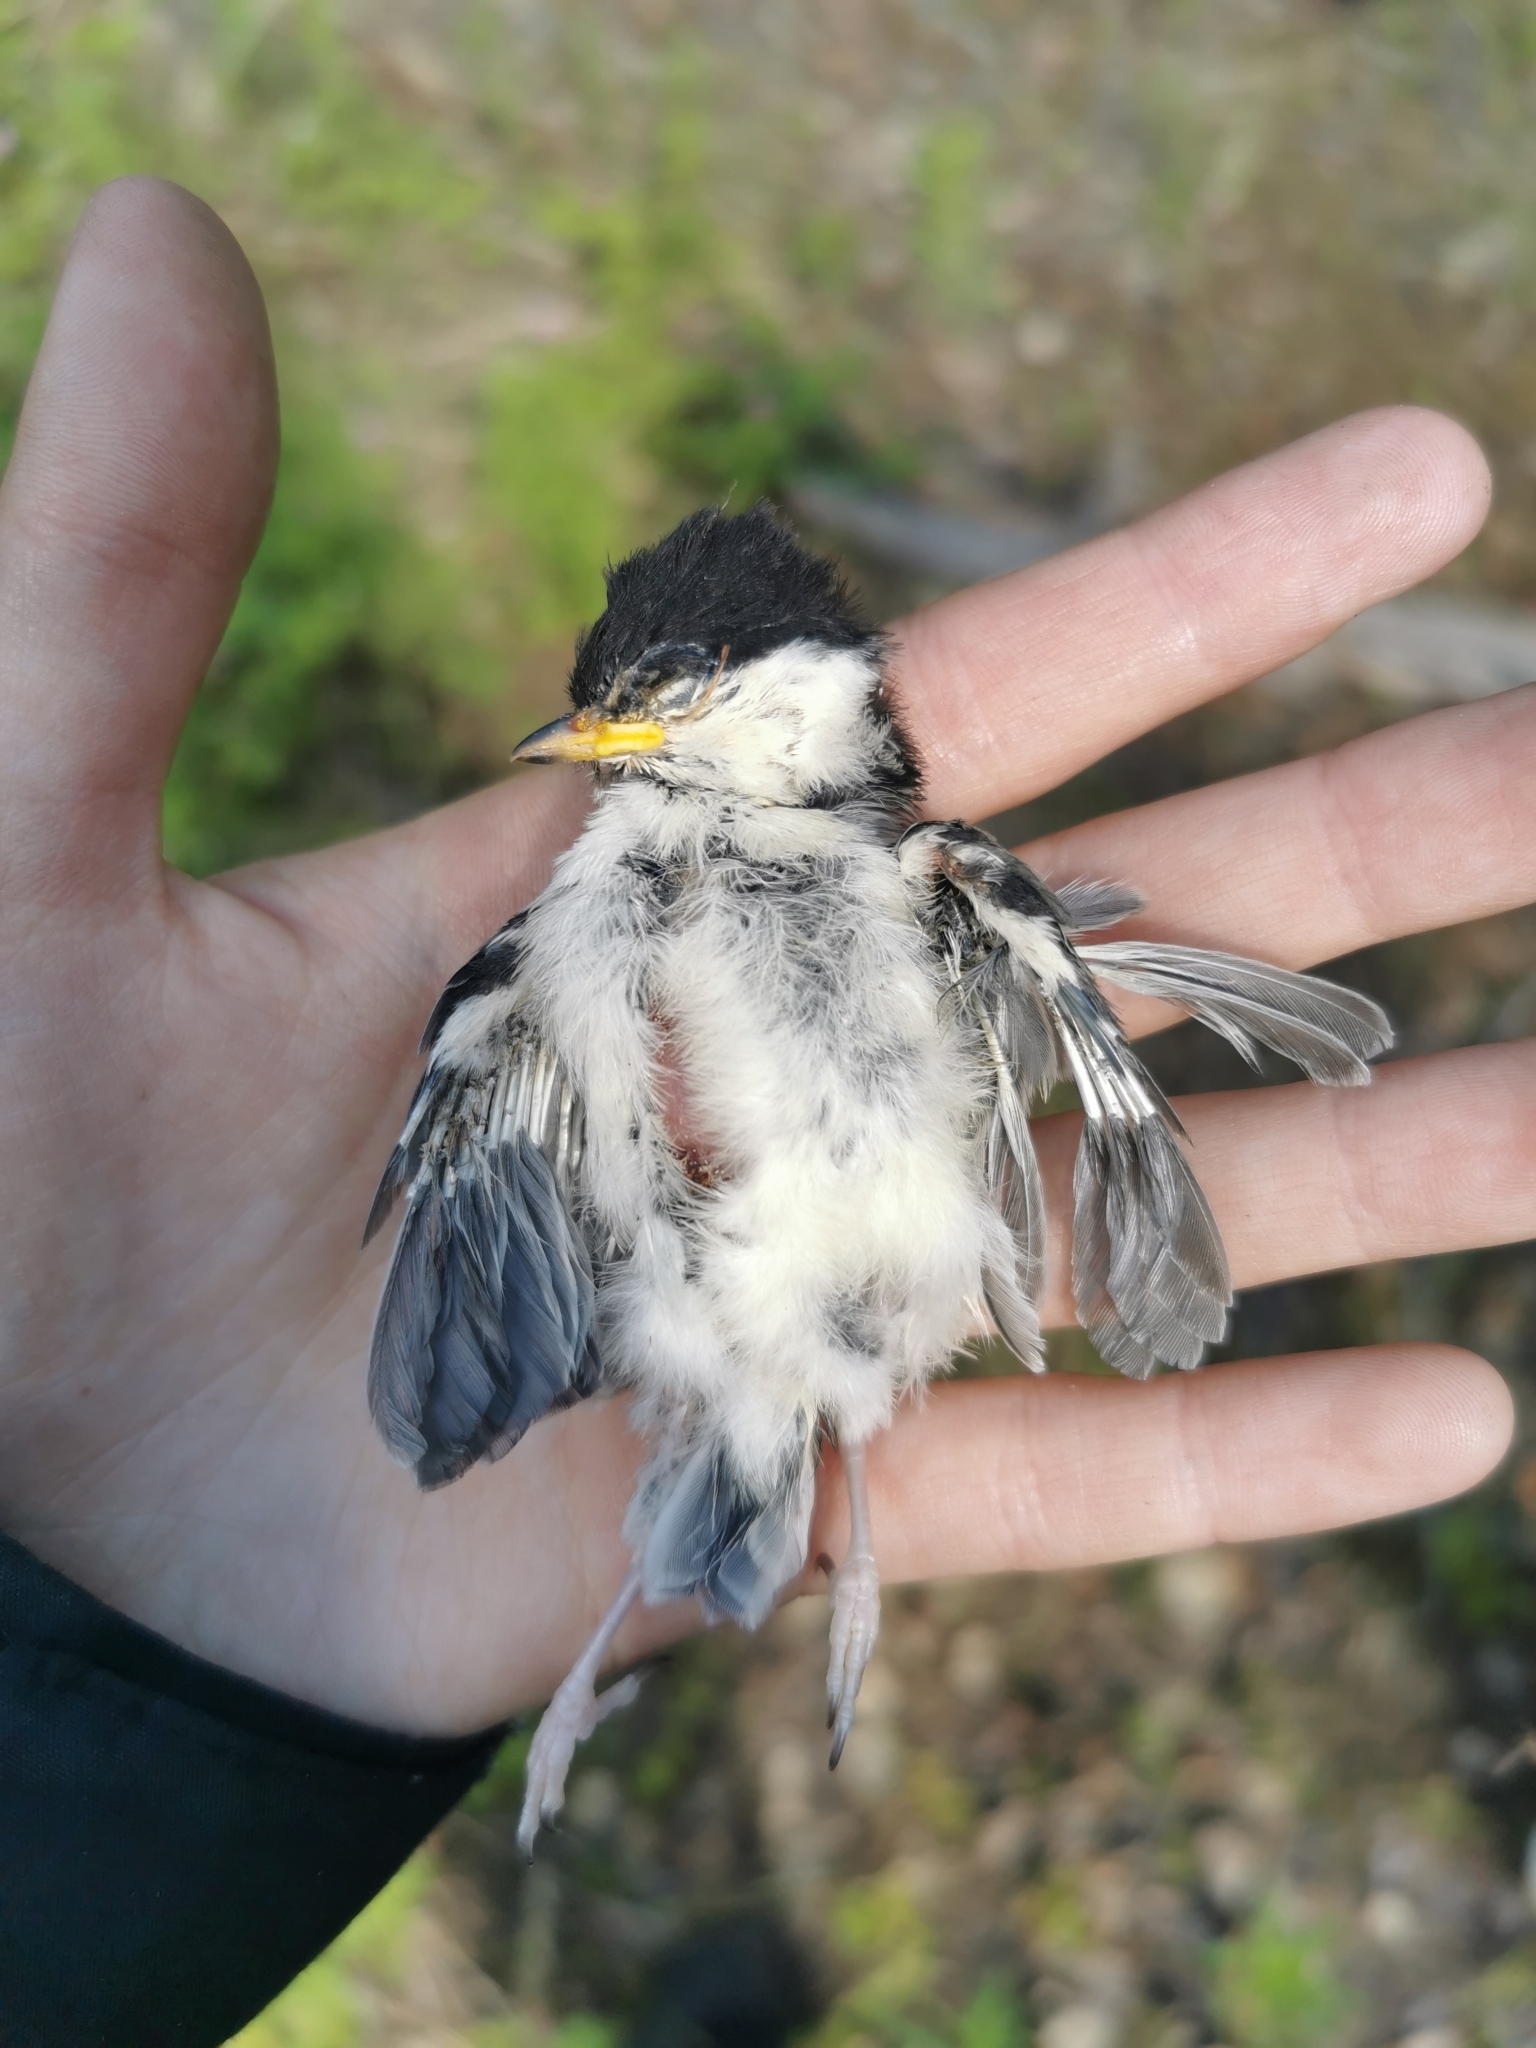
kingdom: Animalia
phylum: Chordata
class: Aves
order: Passeriformes
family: Paridae
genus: Poecile
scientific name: Poecile montanus
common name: Willow tit
